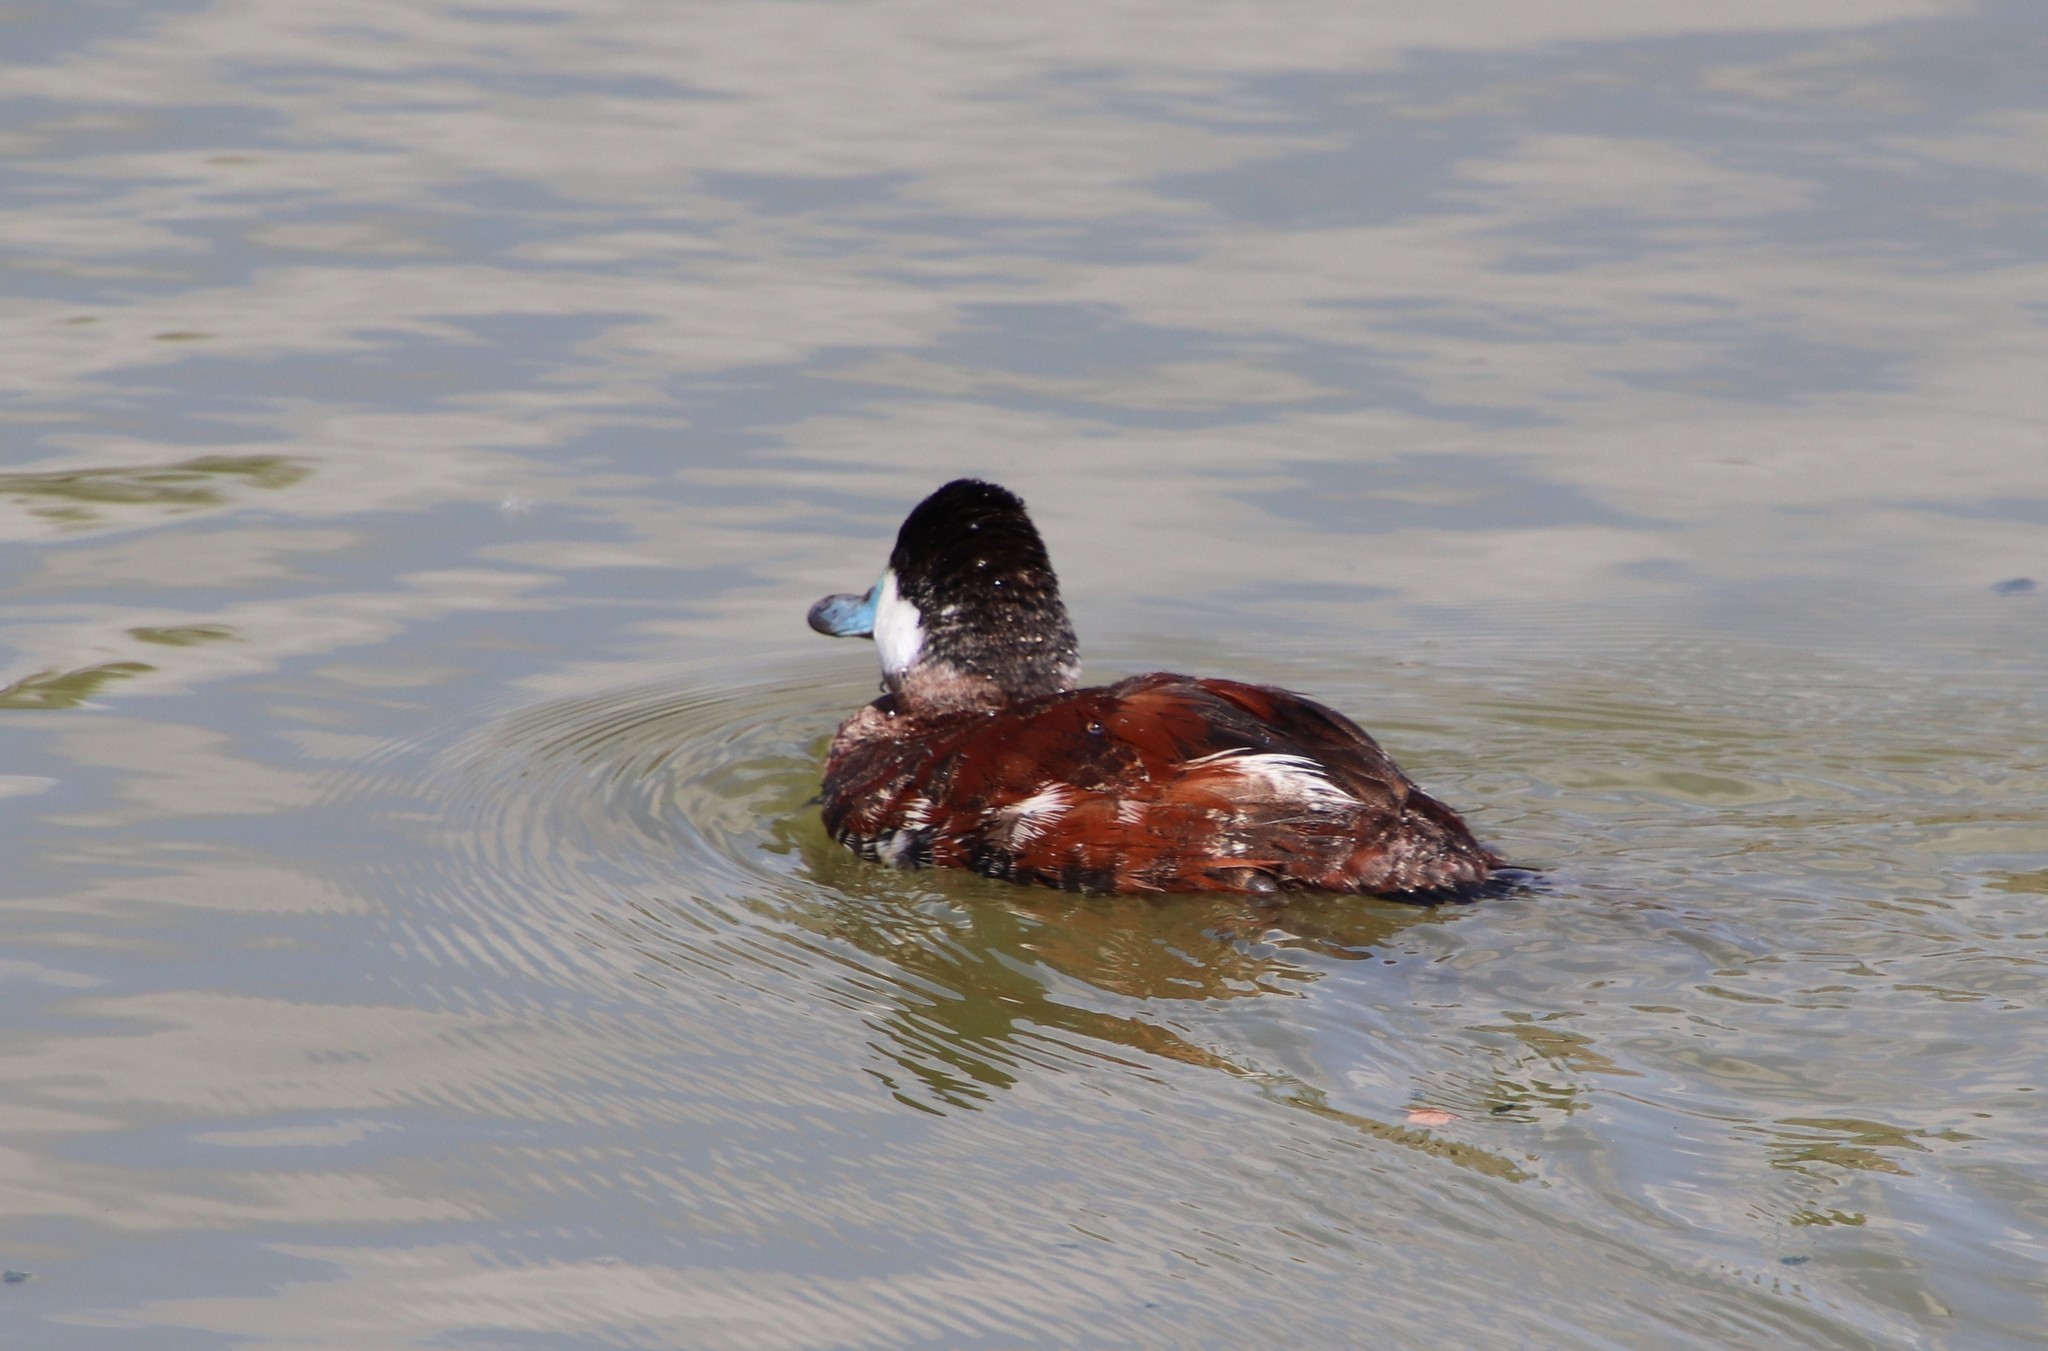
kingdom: Animalia
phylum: Chordata
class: Aves
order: Anseriformes
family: Anatidae
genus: Oxyura
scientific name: Oxyura jamaicensis
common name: Ruddy duck
